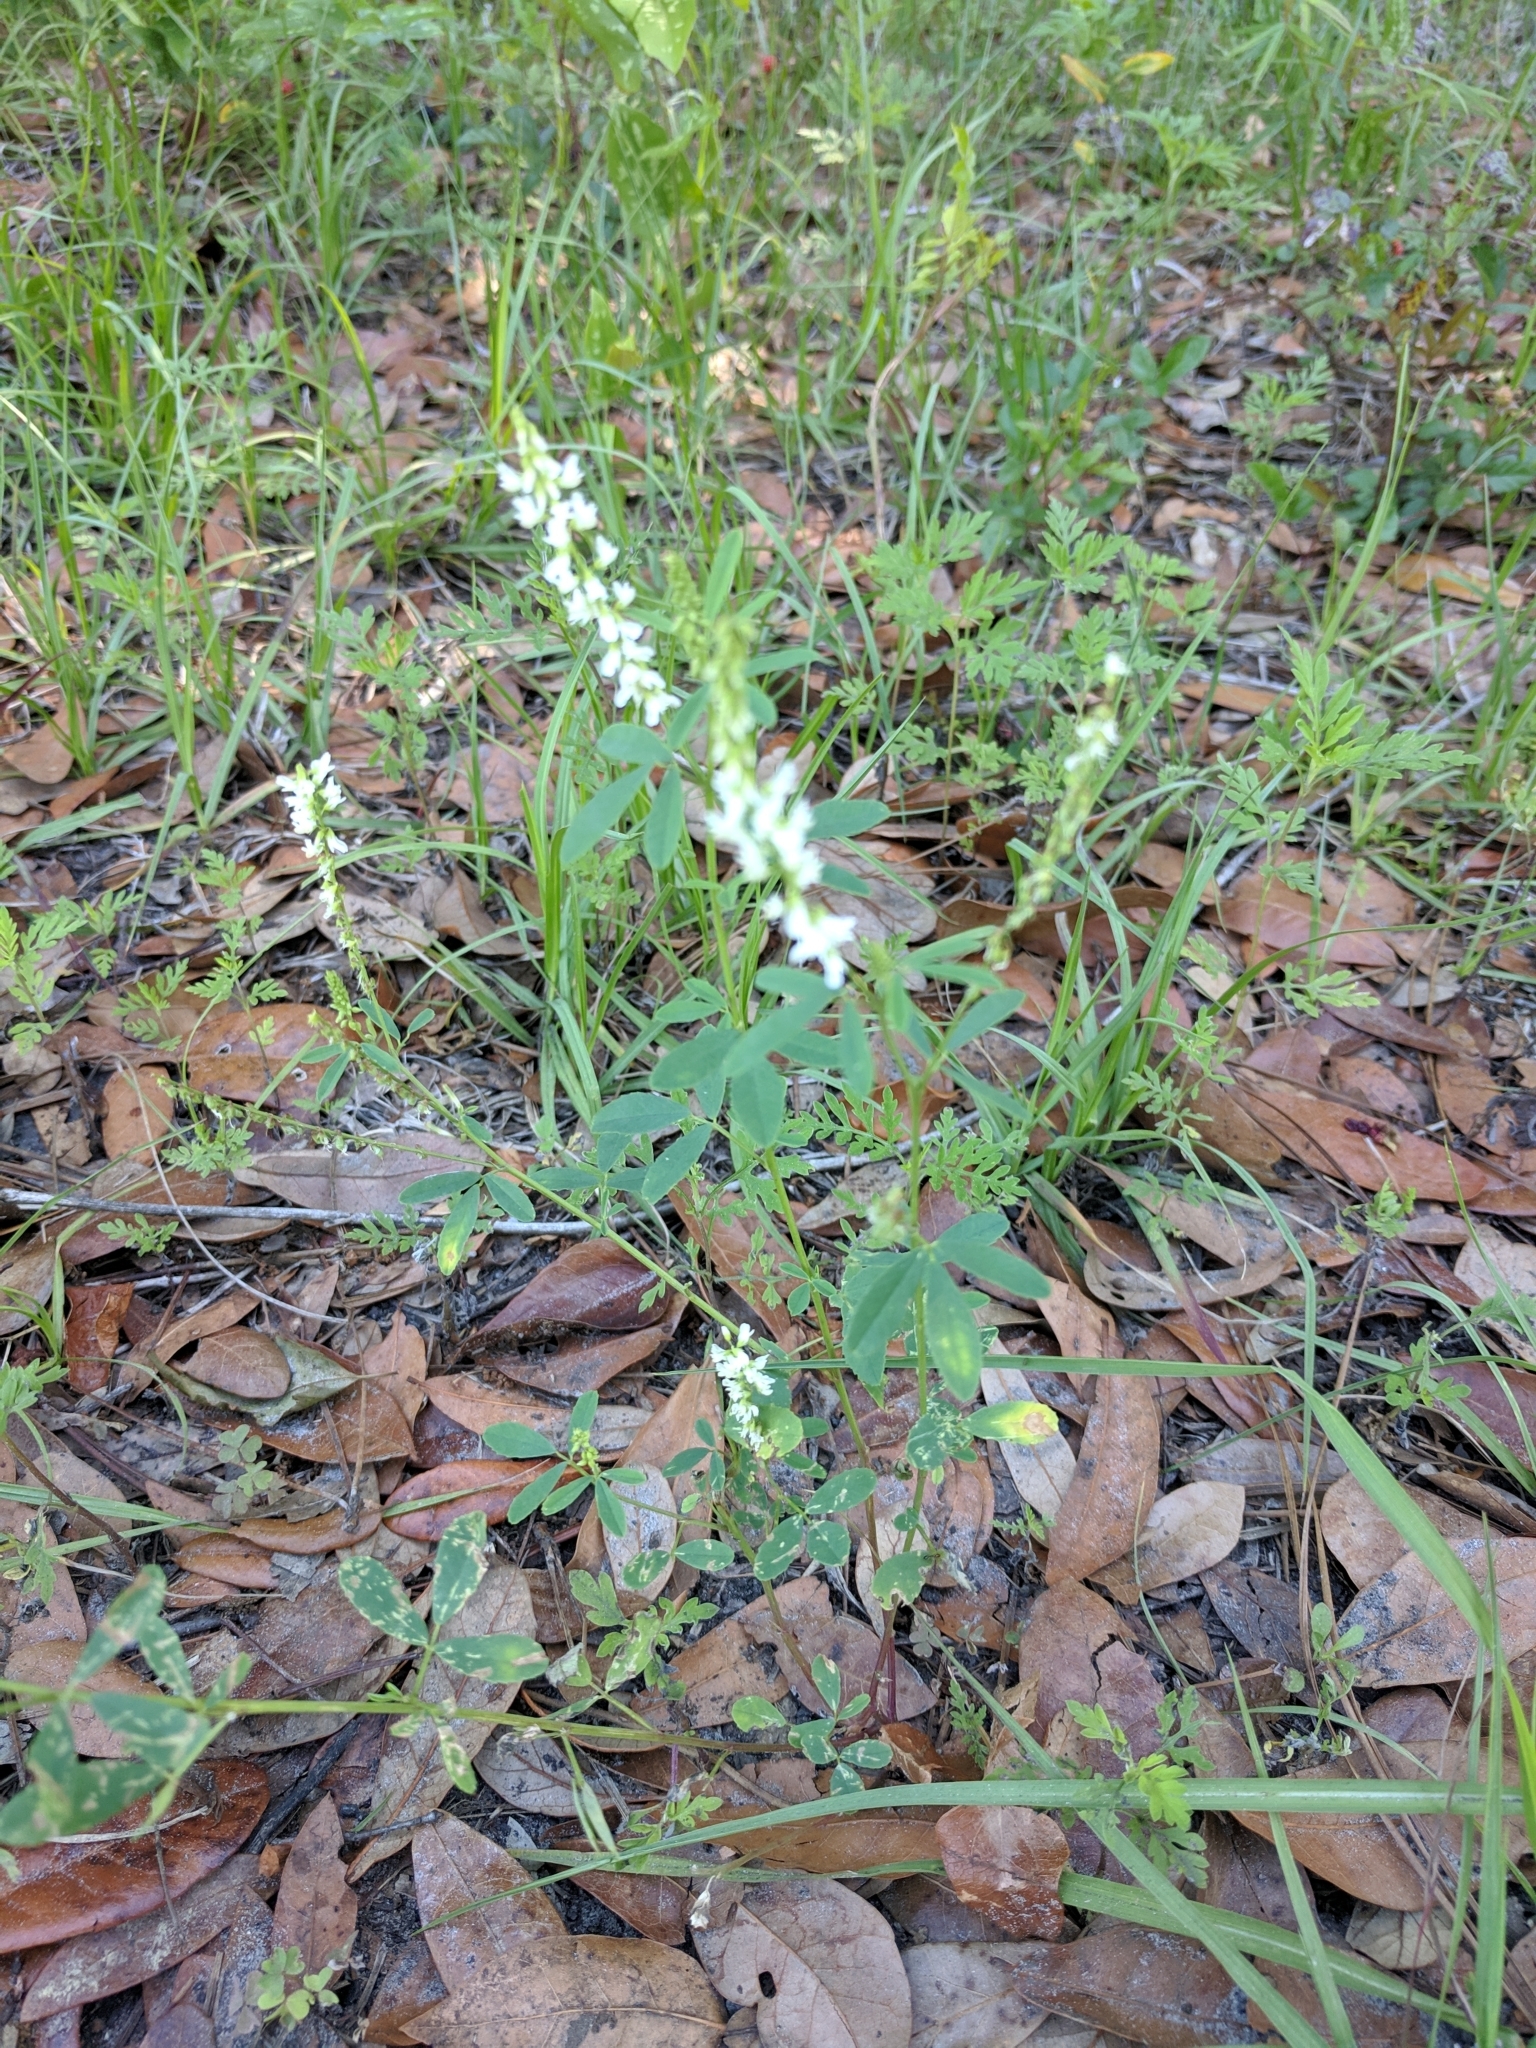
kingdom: Plantae
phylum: Tracheophyta
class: Magnoliopsida
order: Fabales
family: Fabaceae
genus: Melilotus
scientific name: Melilotus albus
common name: White melilot
